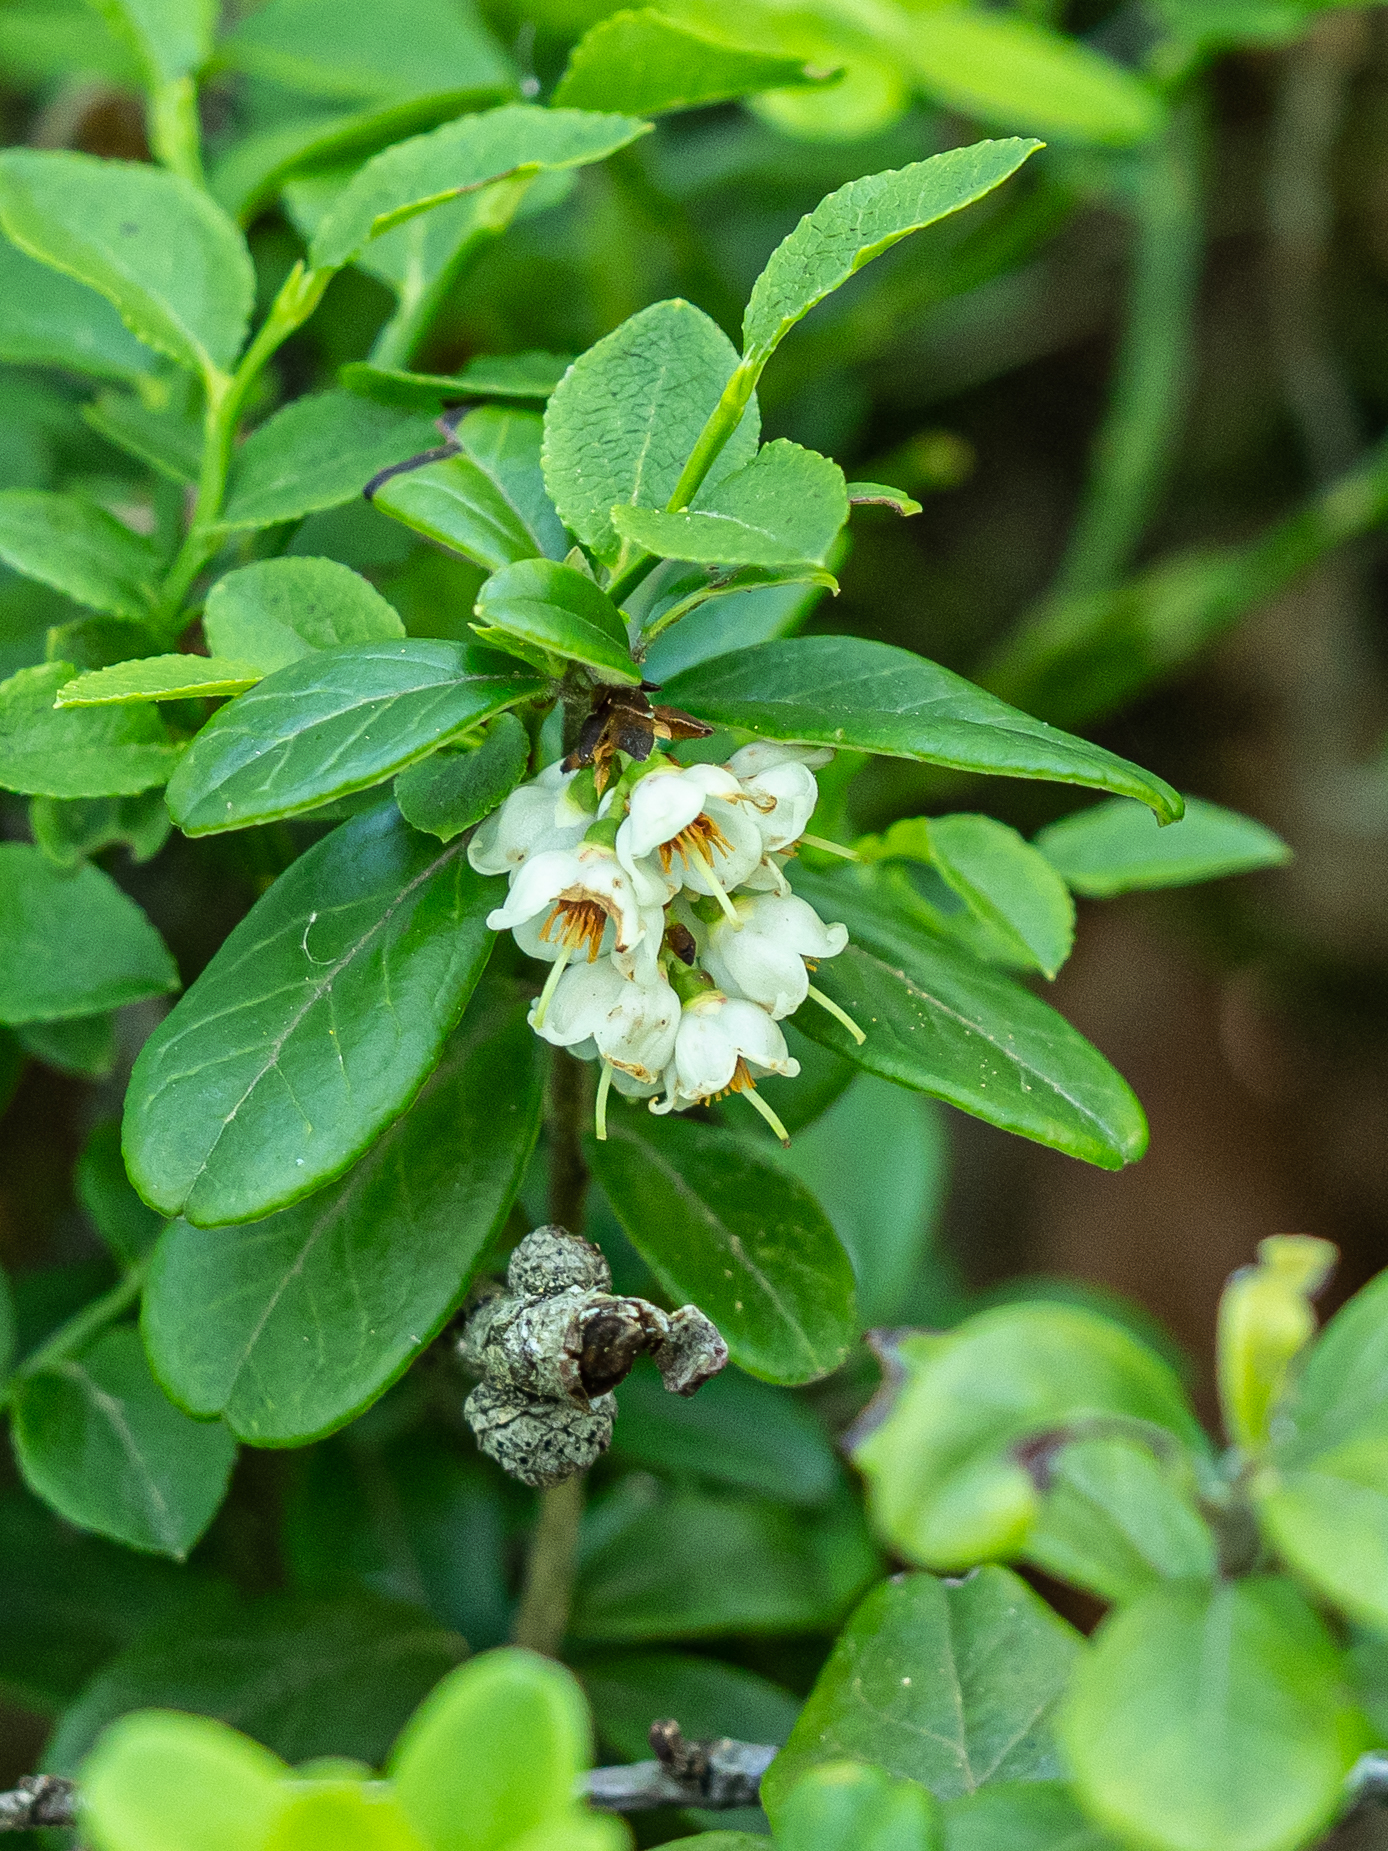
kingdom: Plantae
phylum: Tracheophyta
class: Magnoliopsida
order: Ericales
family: Ericaceae
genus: Vaccinium
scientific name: Vaccinium vitis-idaea
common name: Cowberry
